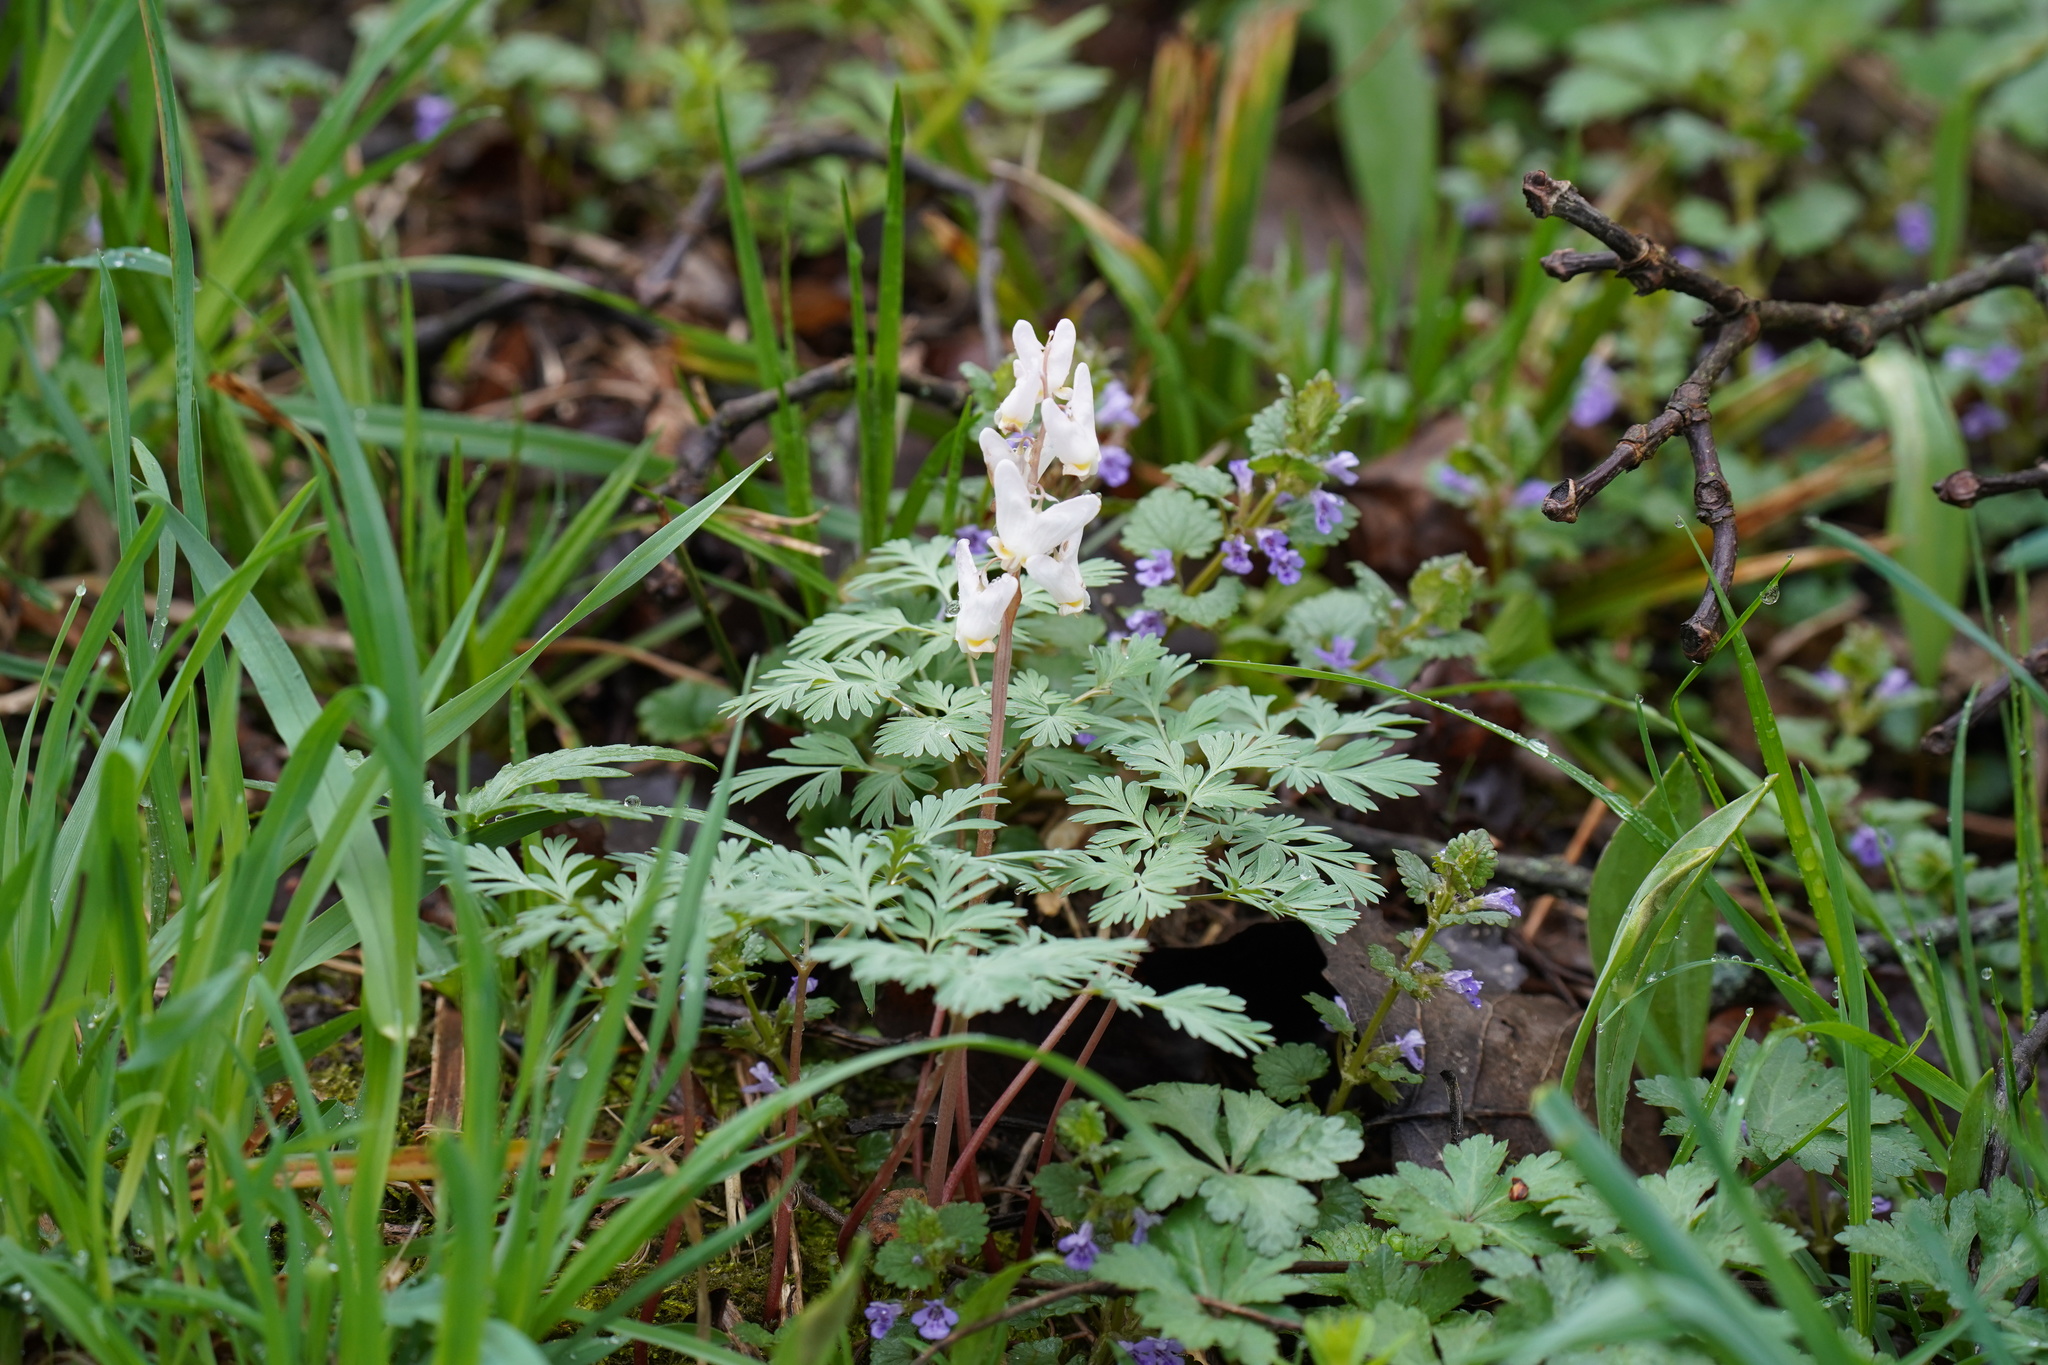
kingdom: Plantae
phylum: Tracheophyta
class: Magnoliopsida
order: Ranunculales
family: Papaveraceae
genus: Dicentra
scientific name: Dicentra cucullaria
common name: Dutchman's breeches
